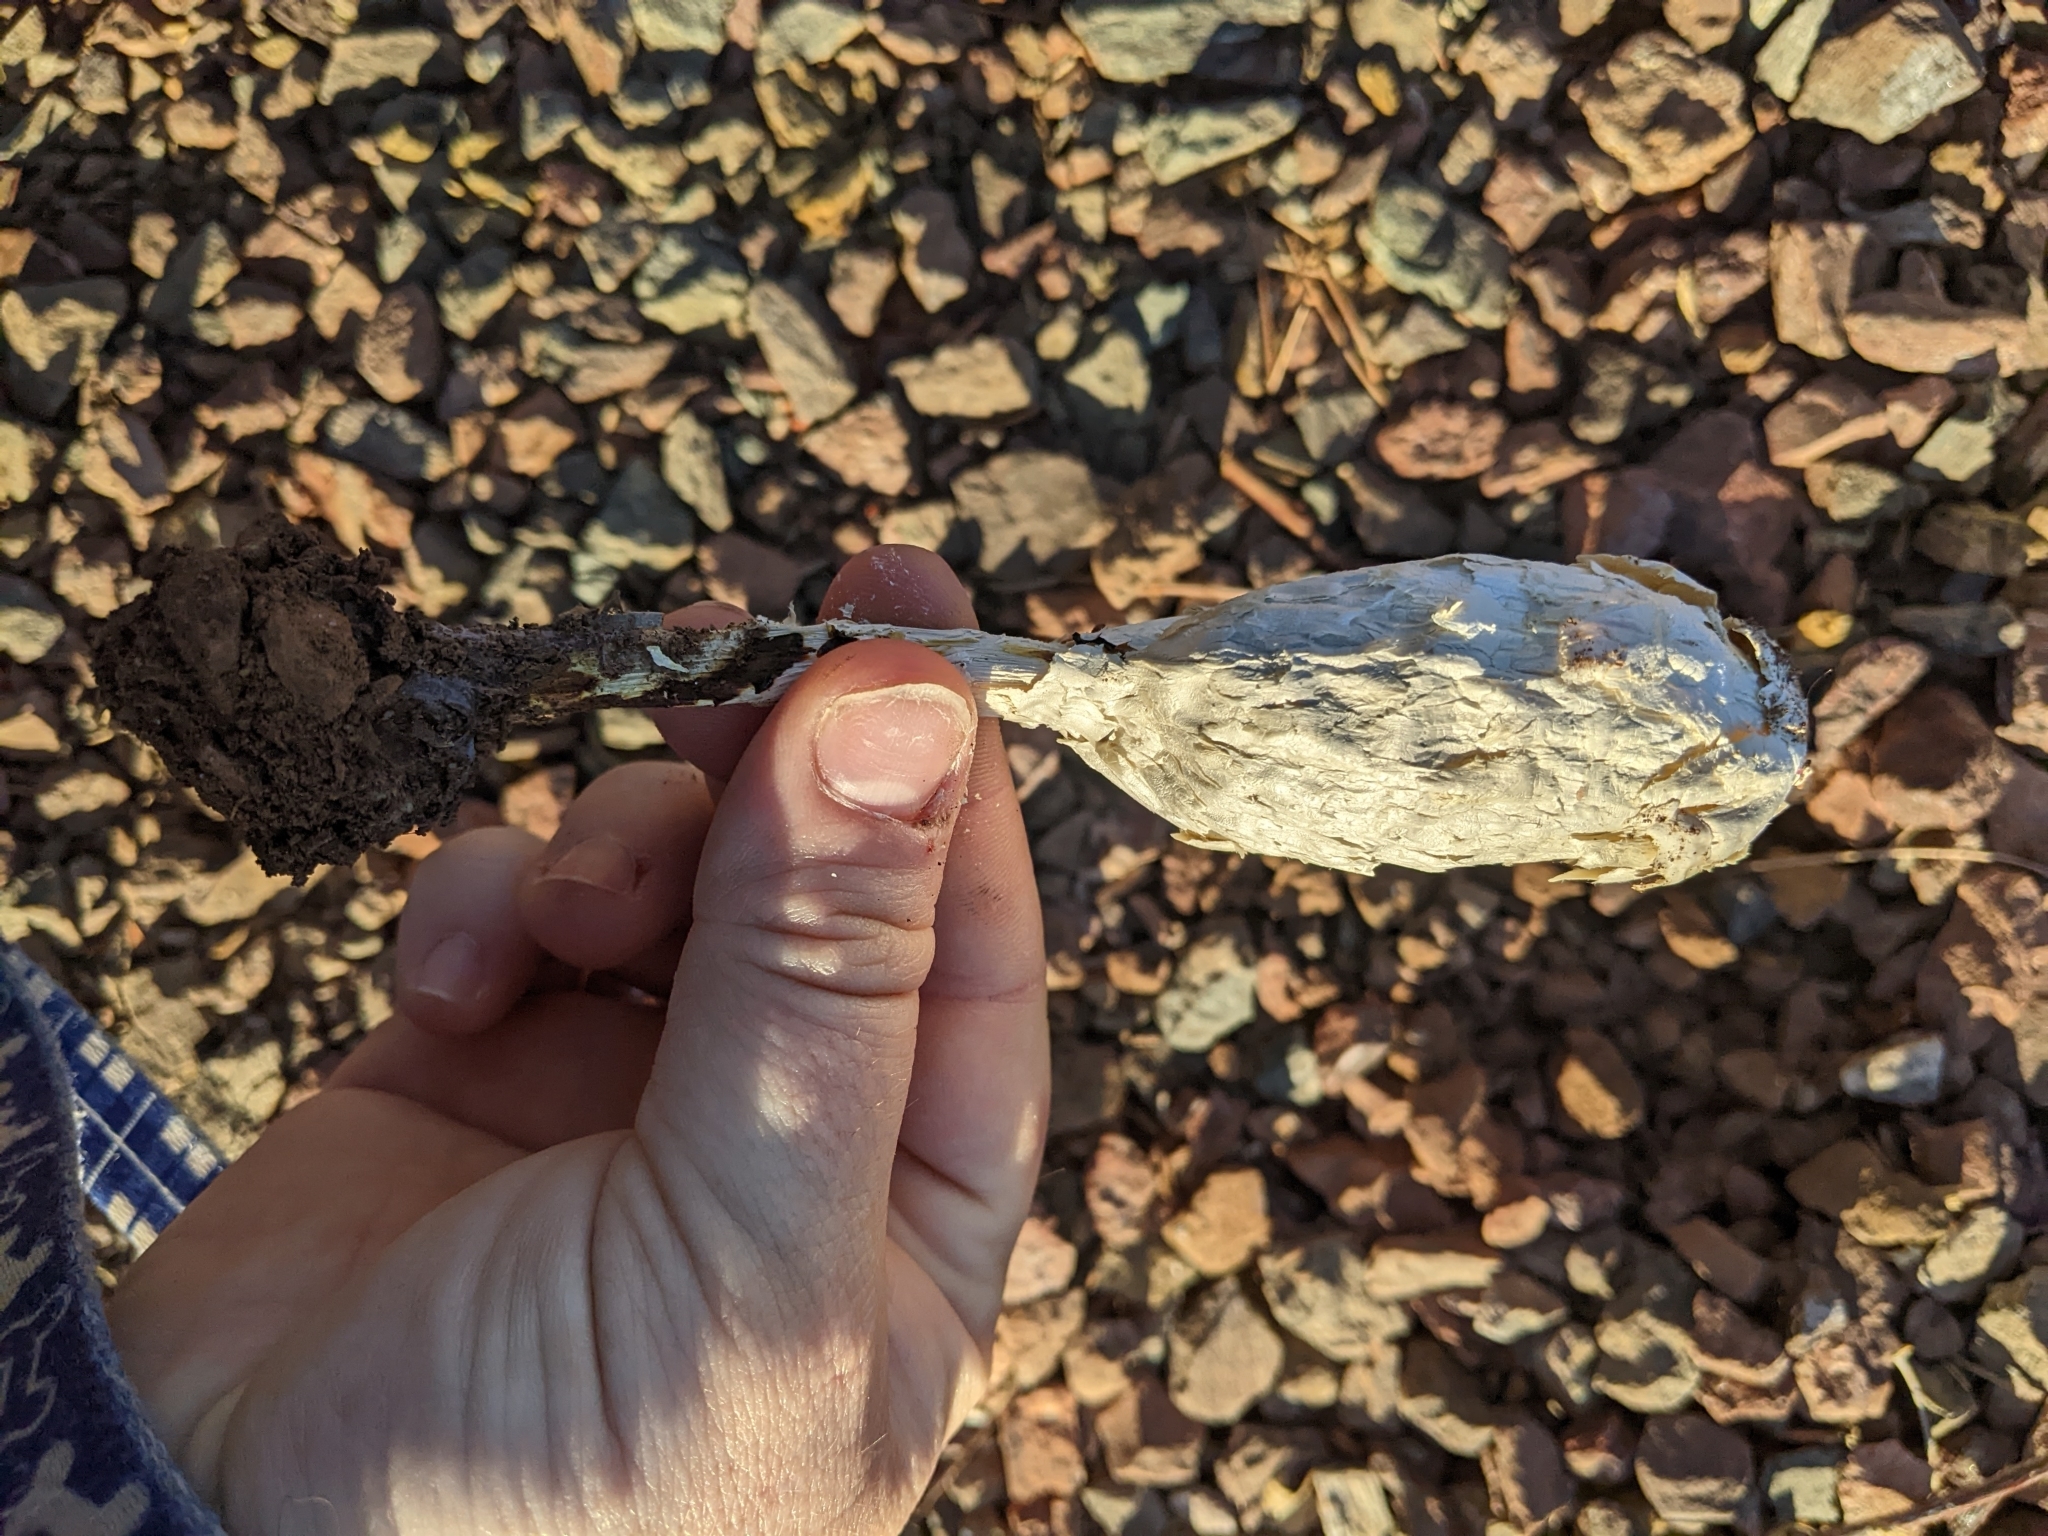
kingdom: Fungi
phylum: Basidiomycota
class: Agaricomycetes
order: Agaricales
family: Agaricaceae
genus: Podaxis
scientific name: Podaxis pistillaris
